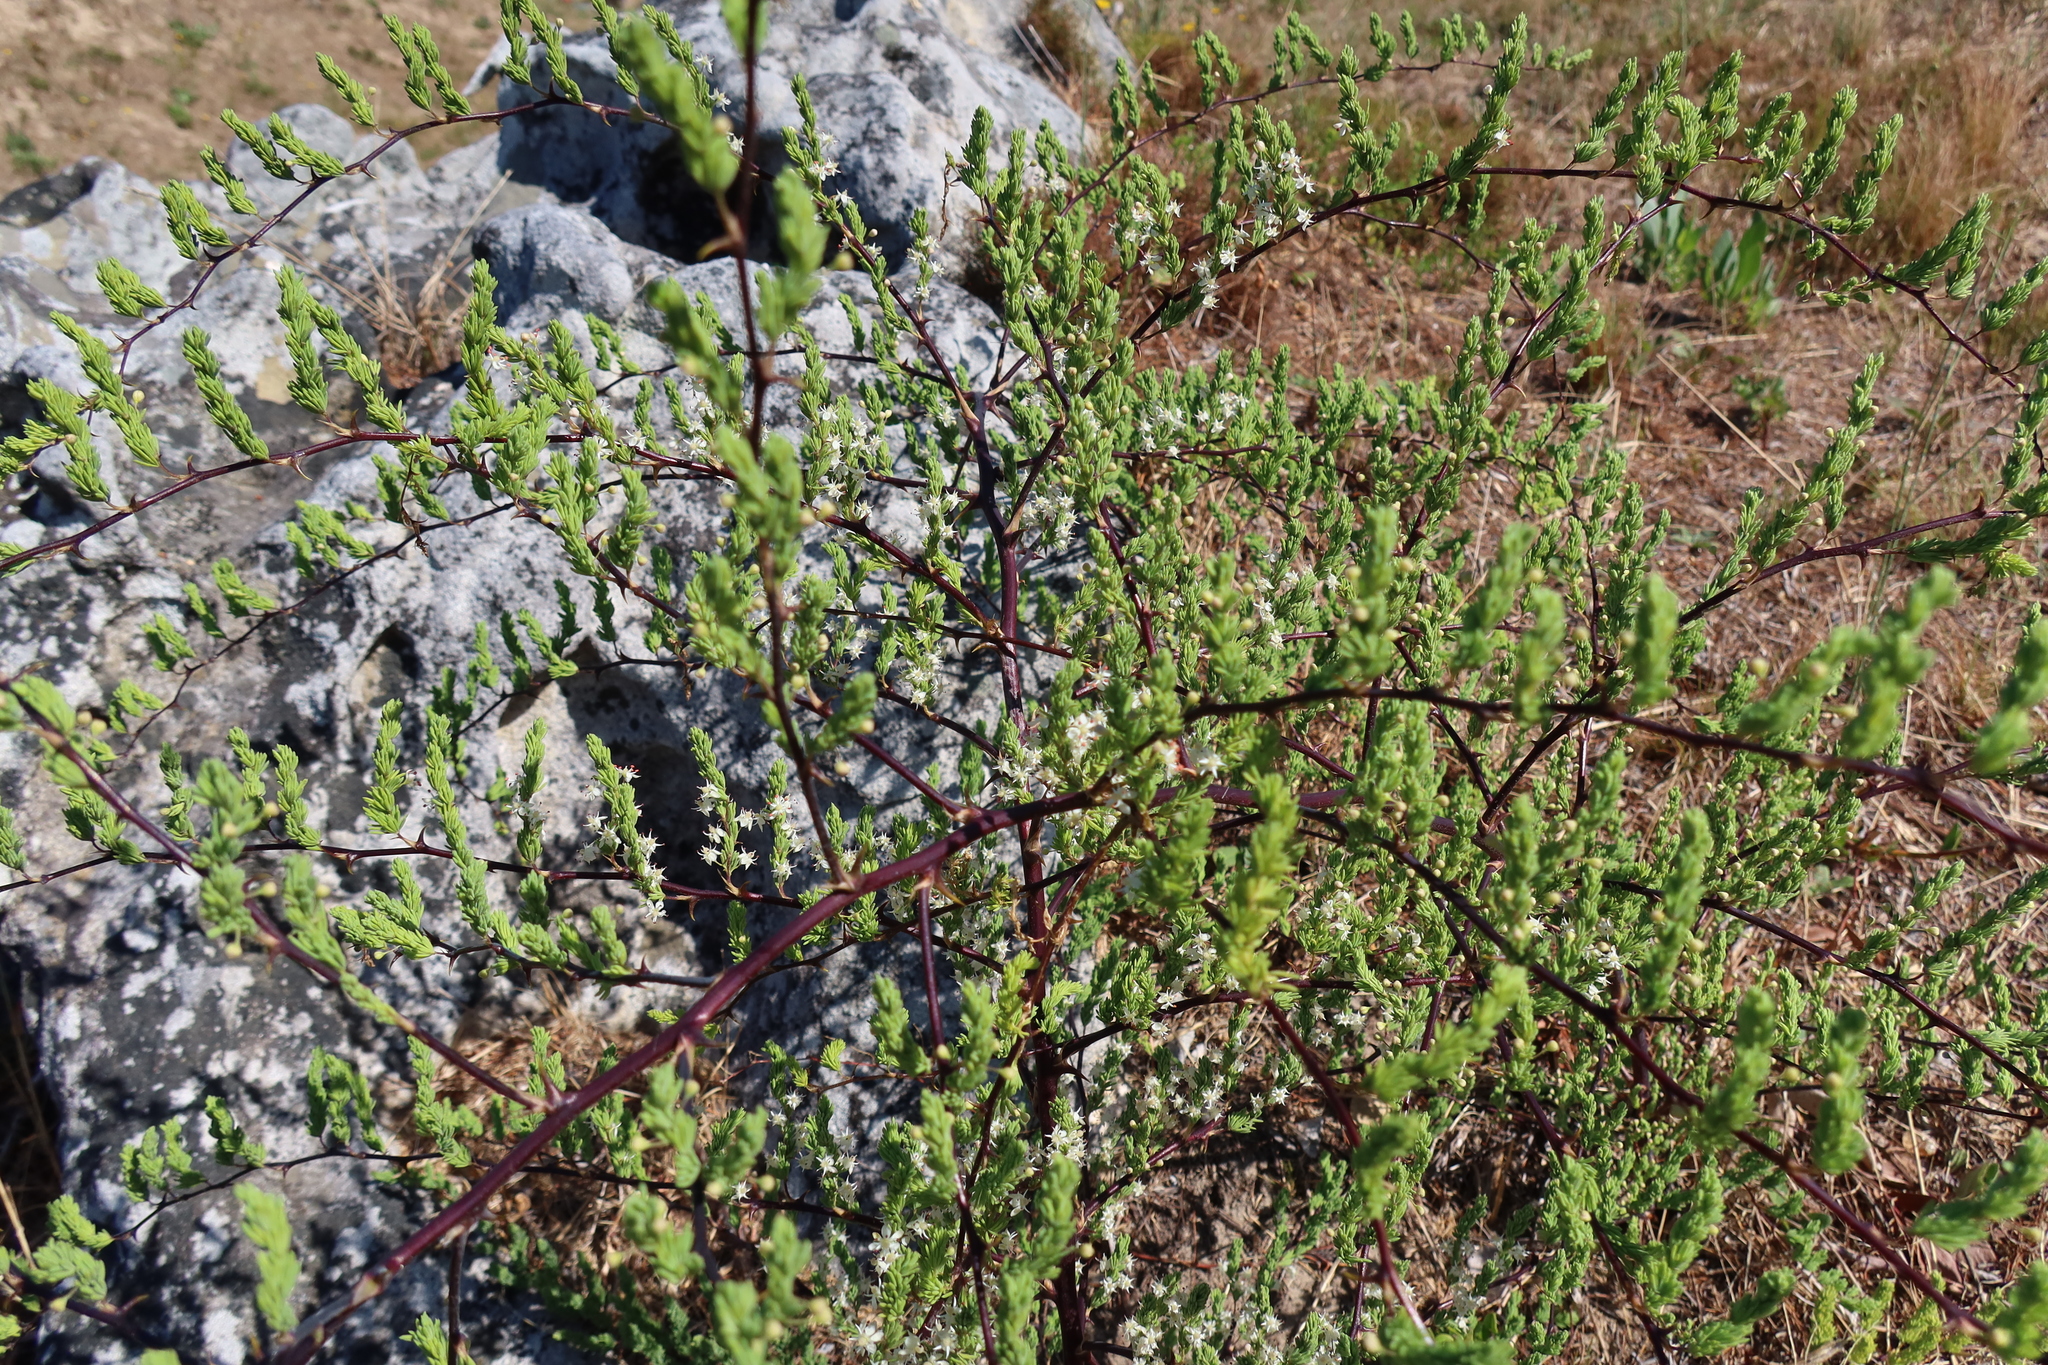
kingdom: Plantae
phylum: Tracheophyta
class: Liliopsida
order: Asparagales
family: Asparagaceae
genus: Asparagus
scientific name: Asparagus rubicundus
